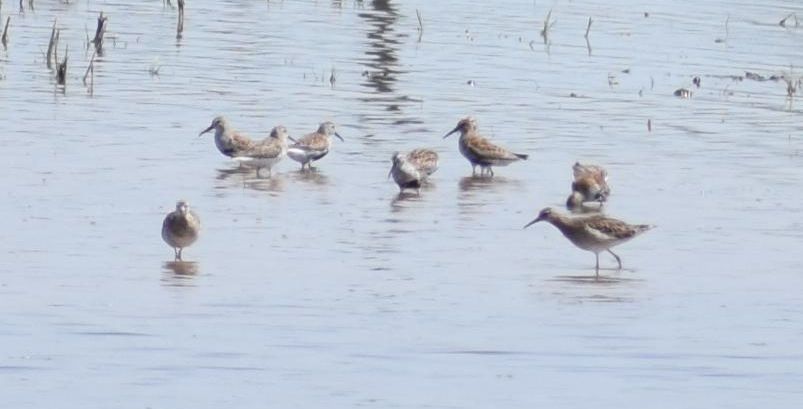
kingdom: Animalia
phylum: Chordata
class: Aves
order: Charadriiformes
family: Scolopacidae
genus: Calidris
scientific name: Calidris alpina
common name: Dunlin
